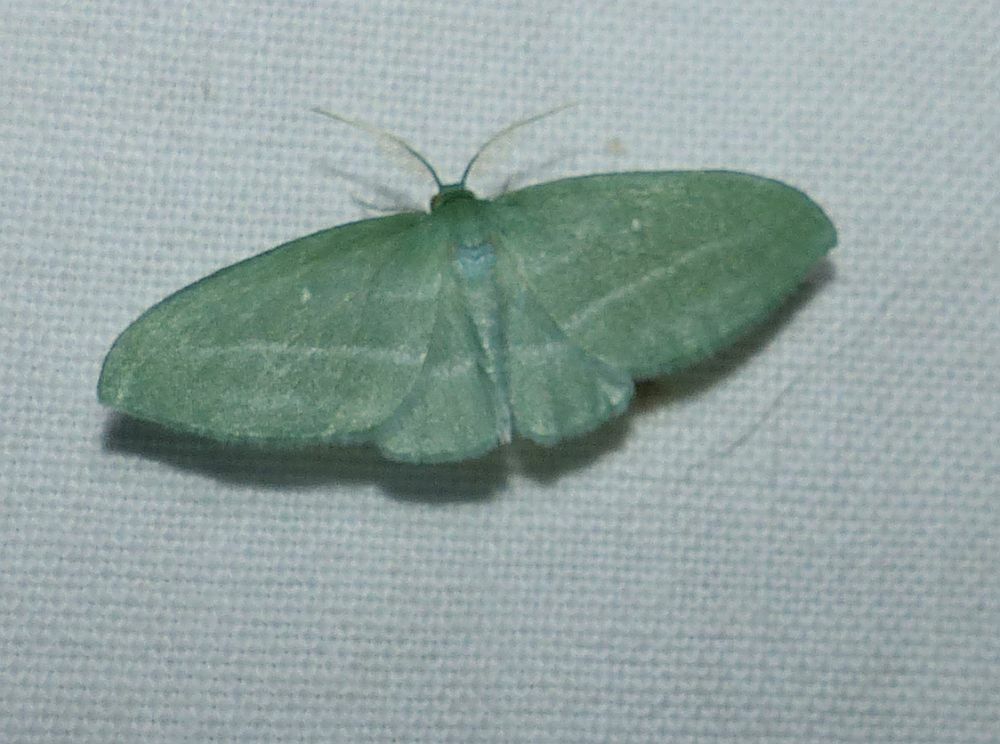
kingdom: Animalia
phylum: Arthropoda
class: Insecta
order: Lepidoptera
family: Geometridae
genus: Dyspteris
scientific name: Dyspteris abortivaria
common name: Bad-wing
